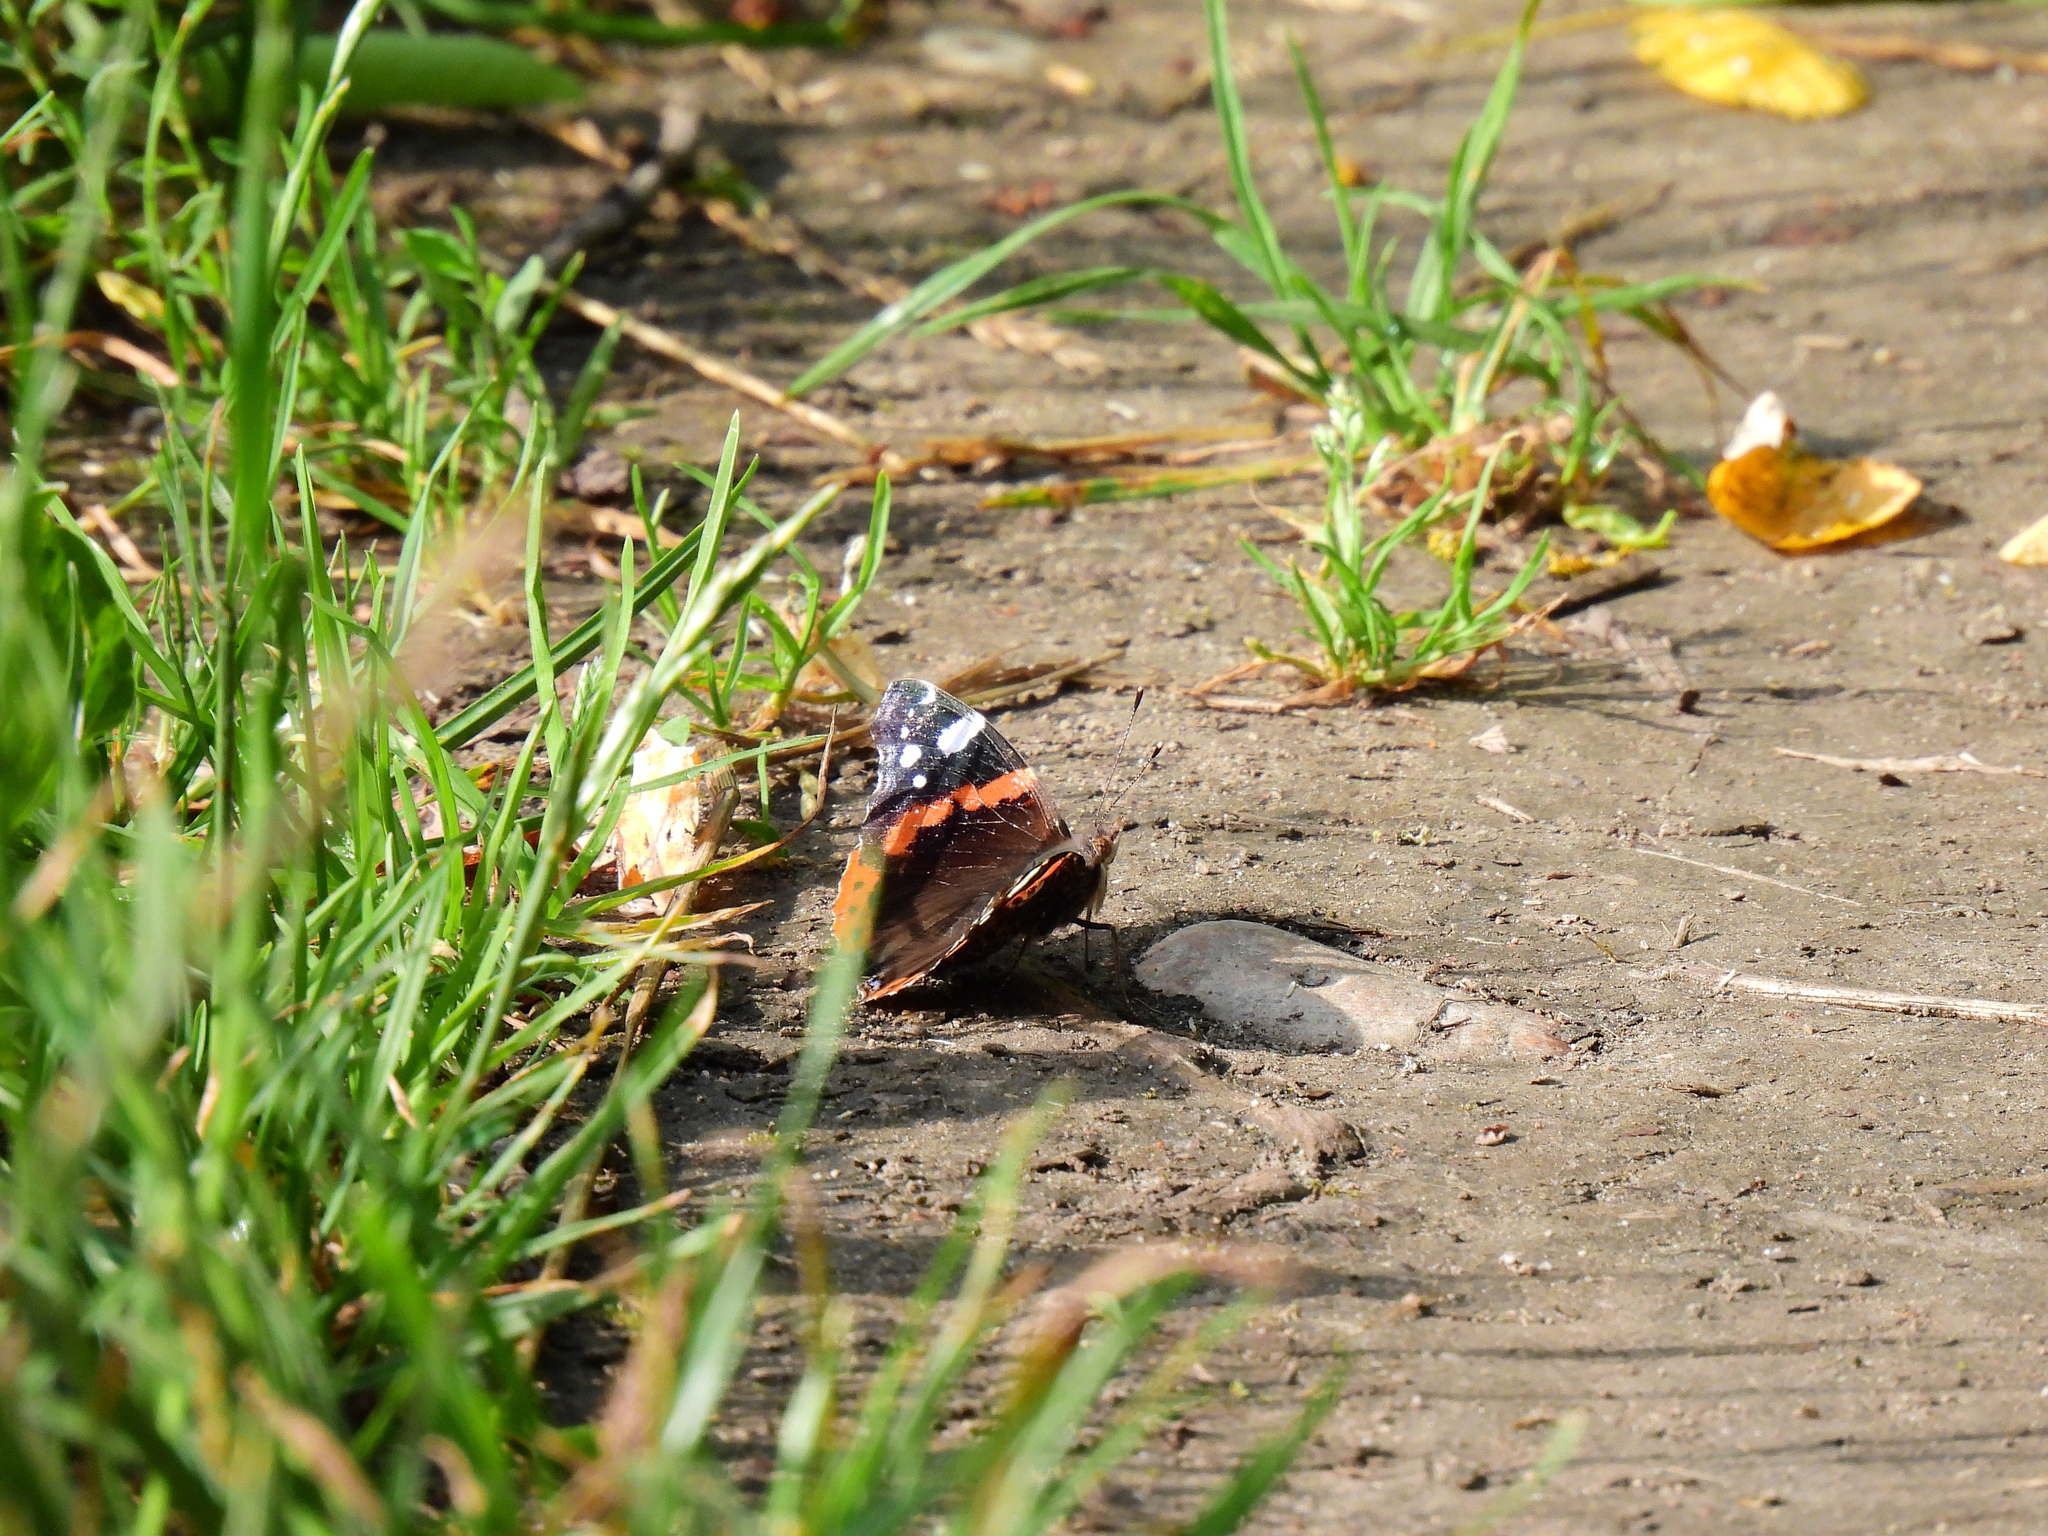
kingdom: Animalia
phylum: Arthropoda
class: Insecta
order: Lepidoptera
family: Nymphalidae
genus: Vanessa
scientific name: Vanessa atalanta
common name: Red admiral
